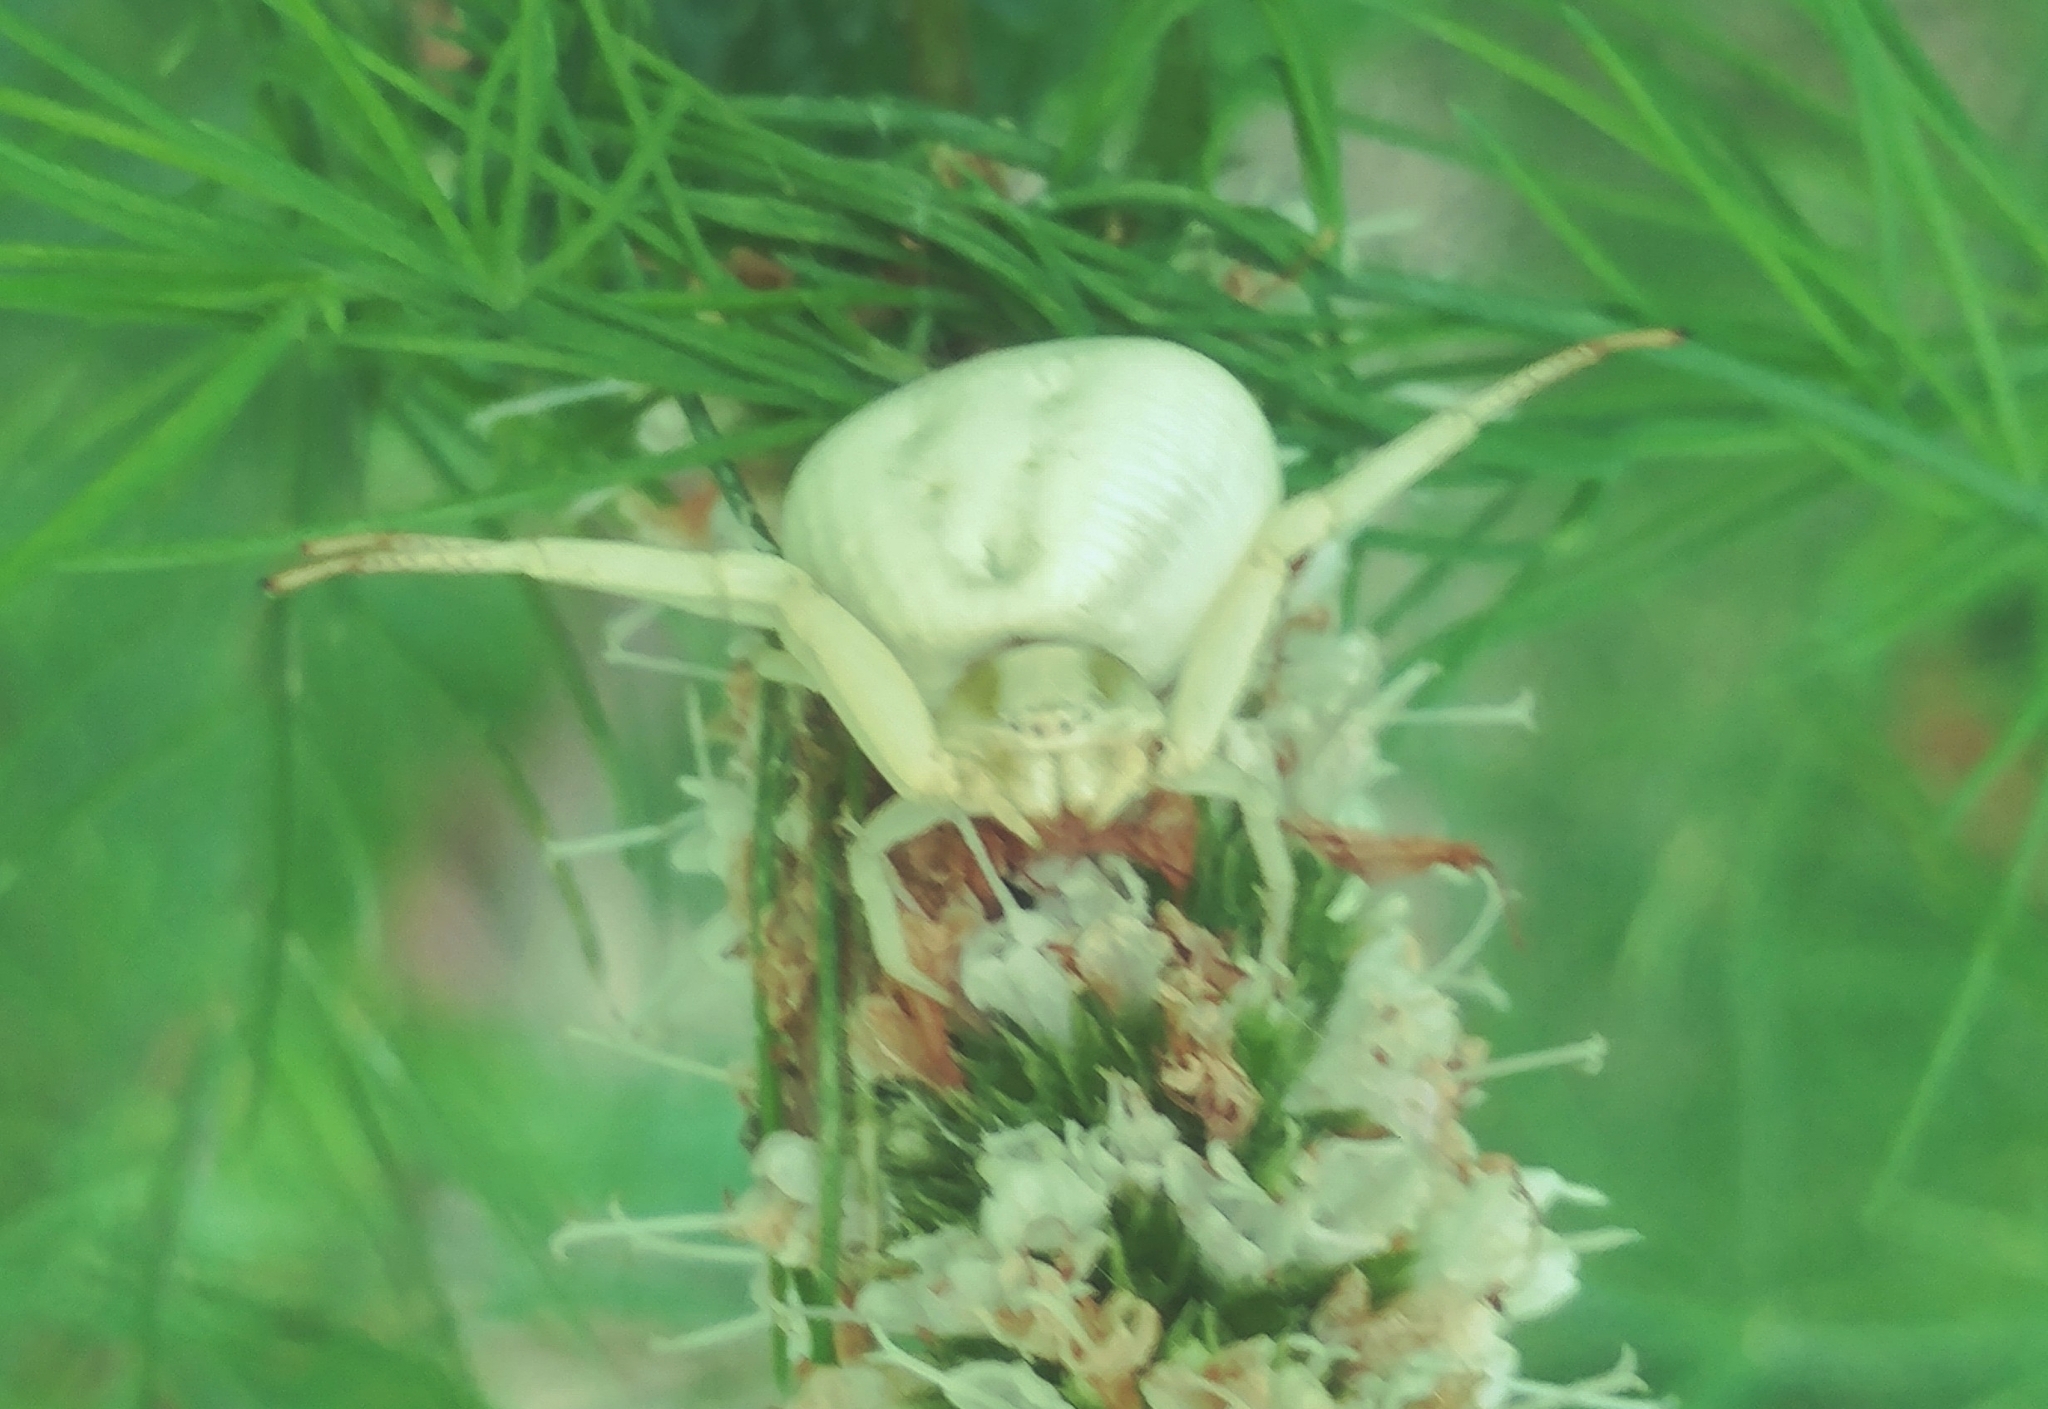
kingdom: Animalia
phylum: Arthropoda
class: Arachnida
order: Araneae
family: Thomisidae
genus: Misumenoides
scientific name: Misumenoides formosipes
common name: White-banded crab spider
